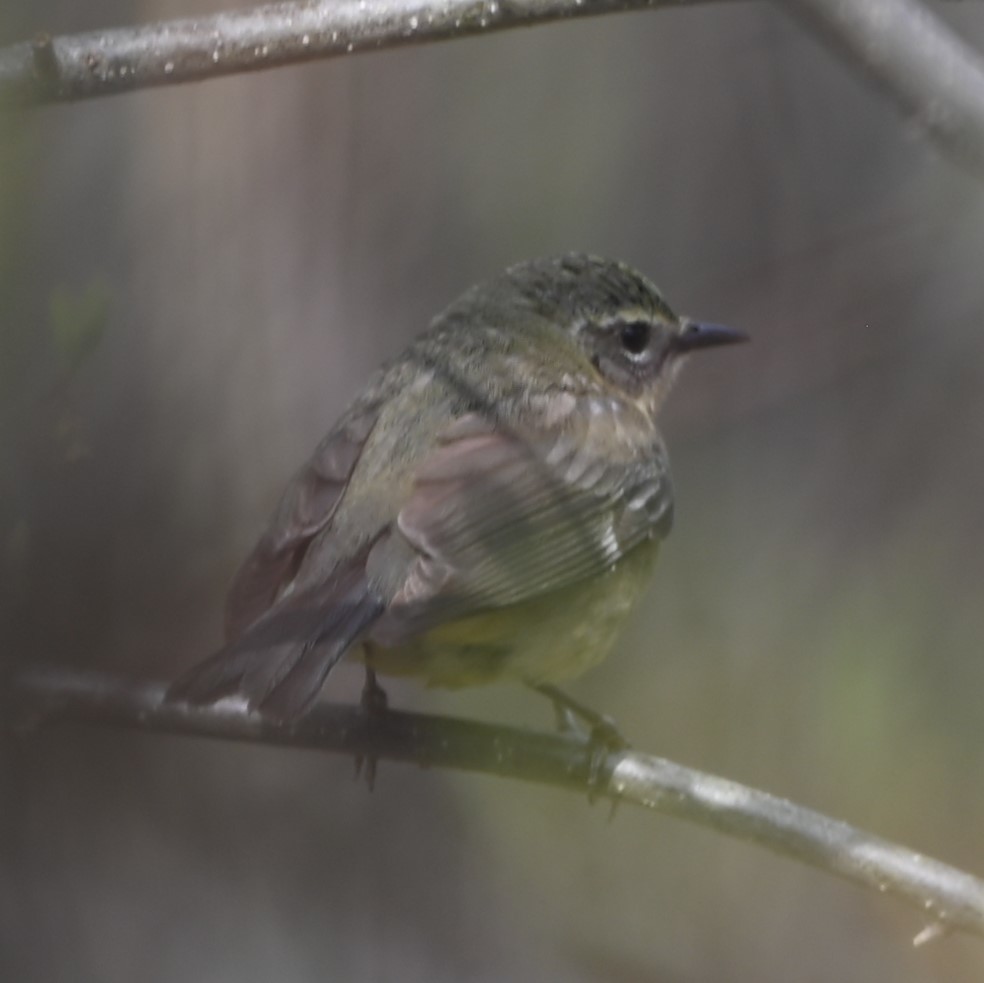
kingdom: Animalia
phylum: Chordata
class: Aves
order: Passeriformes
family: Parulidae
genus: Setophaga
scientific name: Setophaga caerulescens
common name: Black-throated blue warbler
